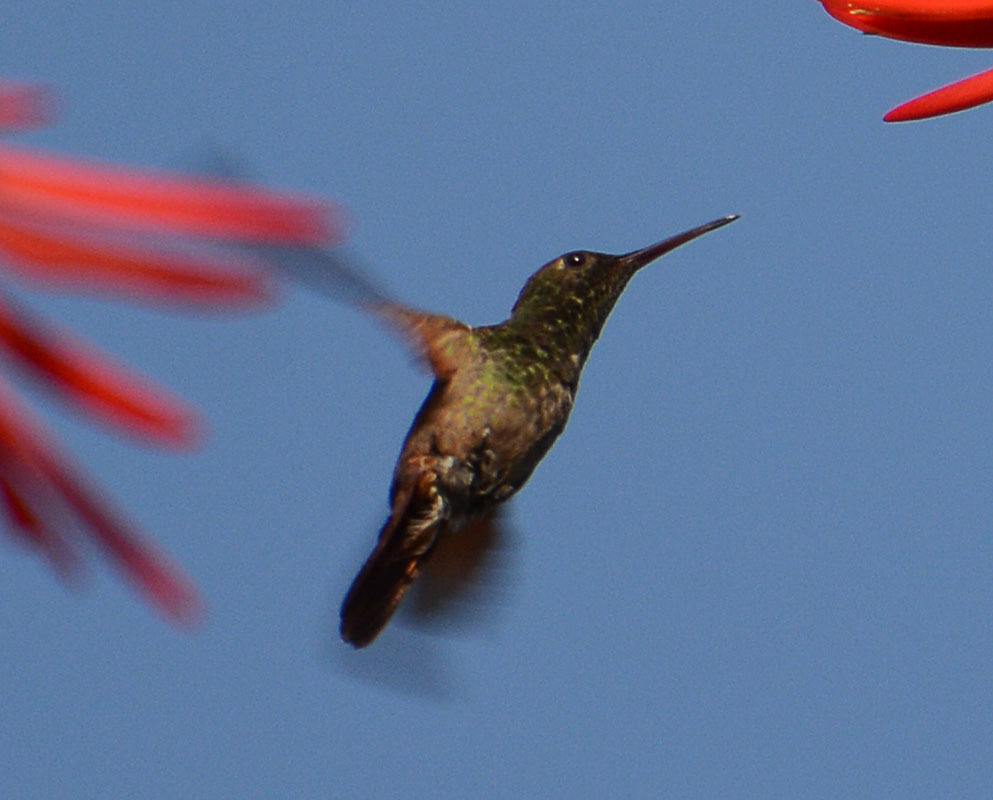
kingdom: Animalia
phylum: Chordata
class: Aves
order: Apodiformes
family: Trochilidae
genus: Saucerottia
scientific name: Saucerottia beryllina
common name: Berylline hummingbird
